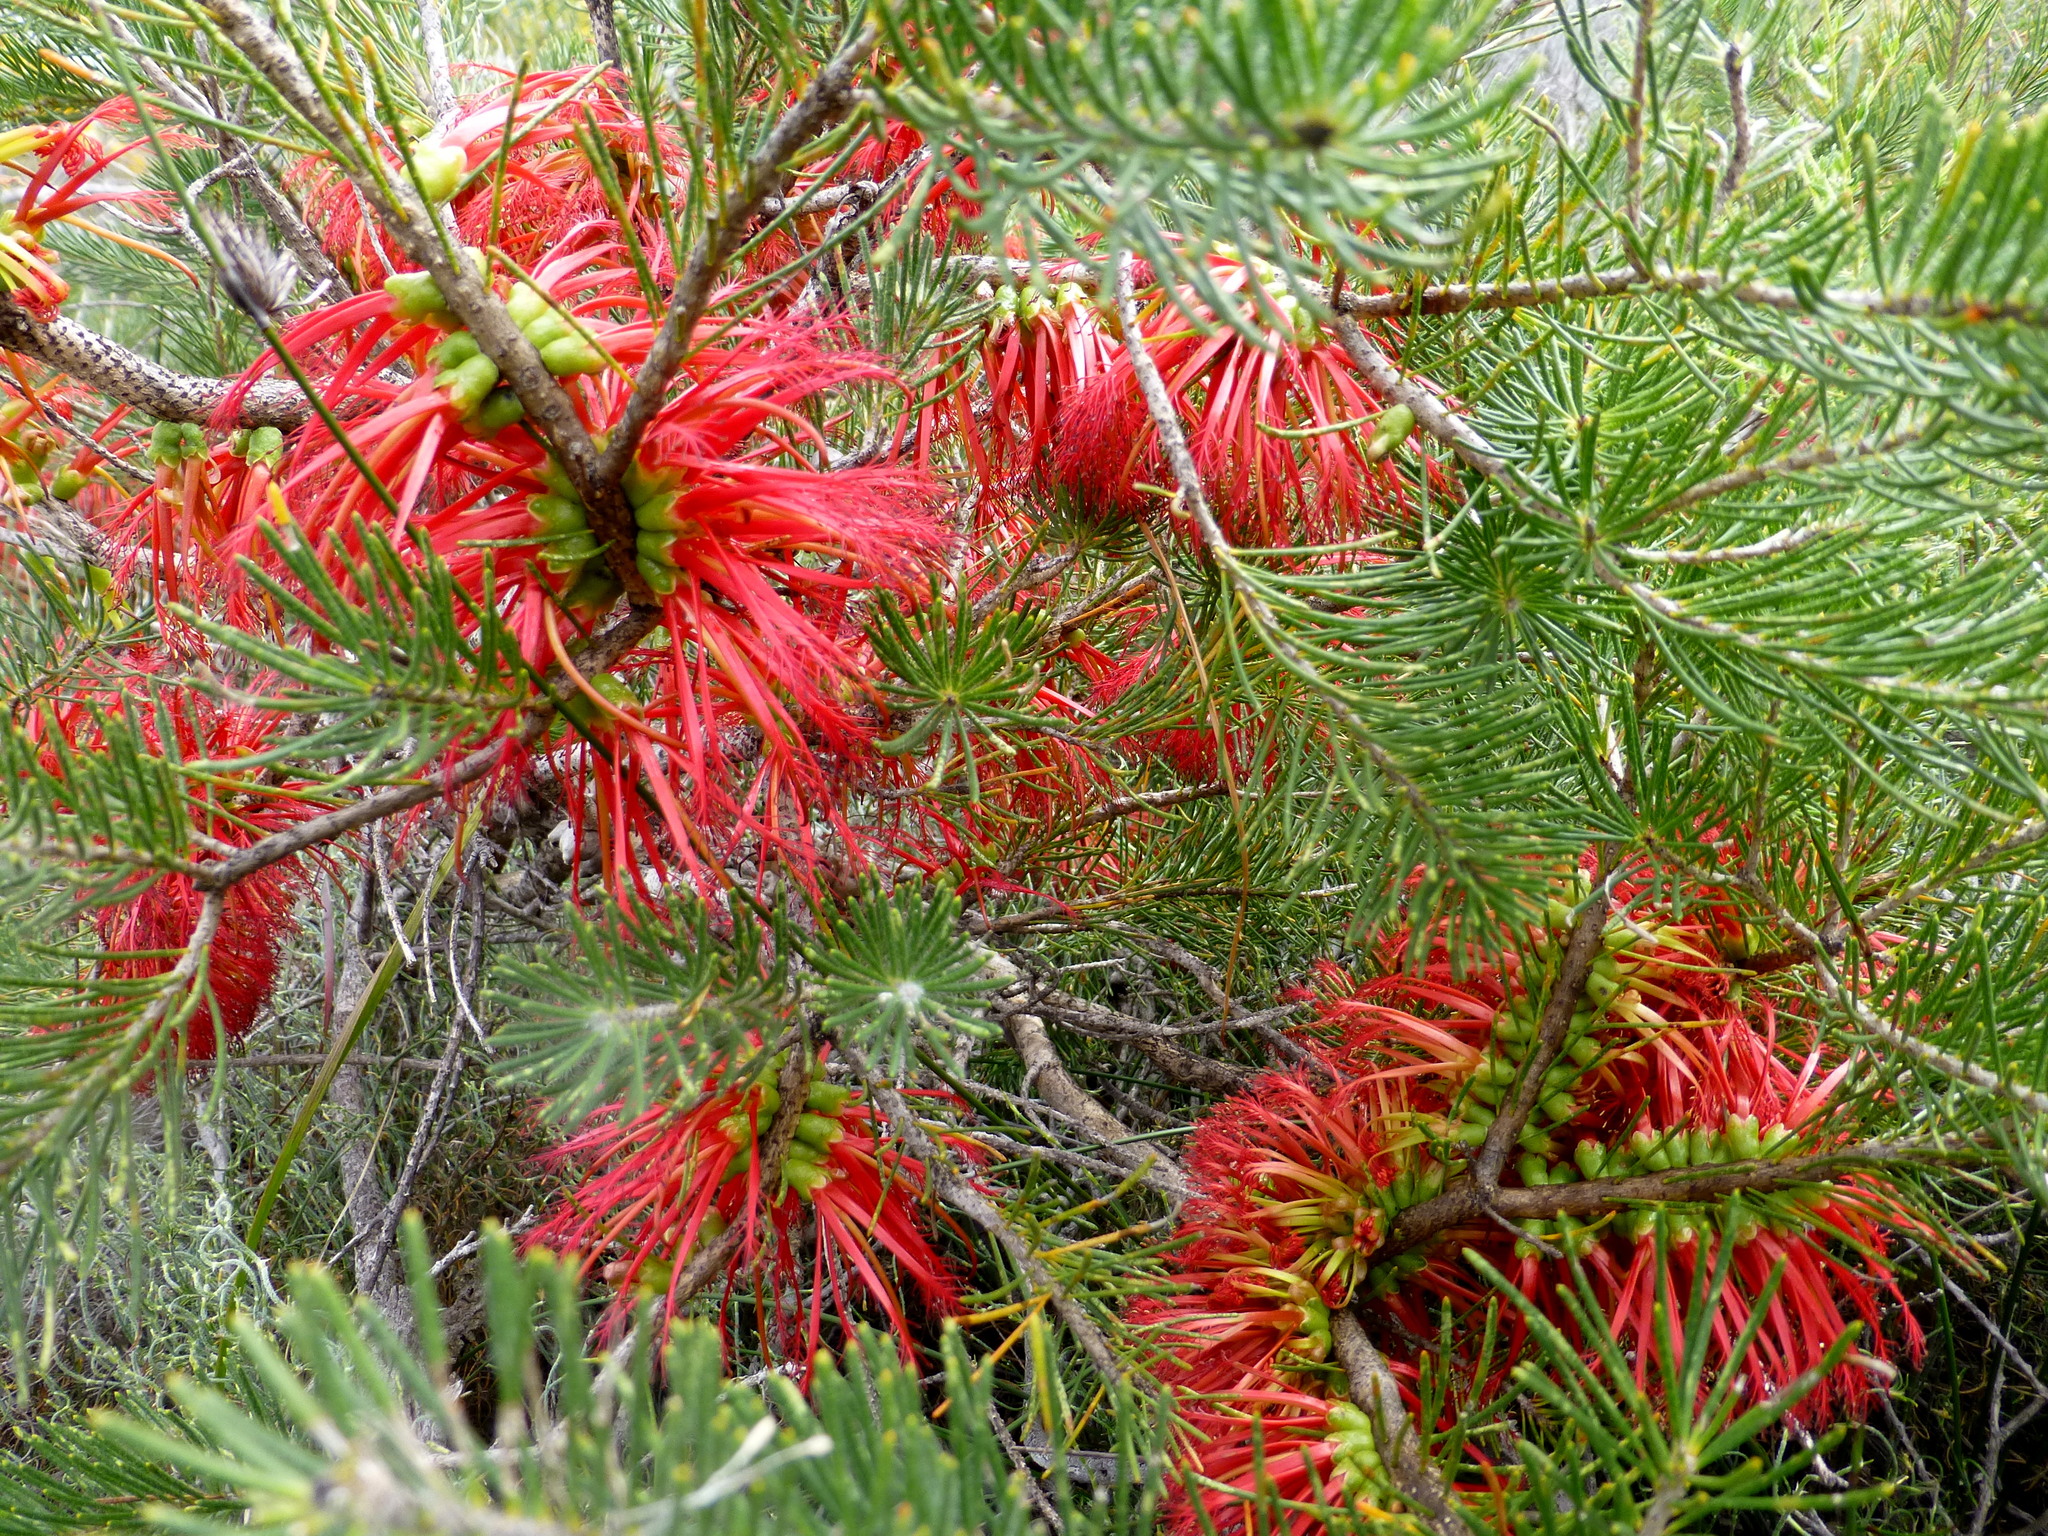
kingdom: Plantae
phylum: Tracheophyta
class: Magnoliopsida
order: Myrtales
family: Myrtaceae
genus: Melaleuca
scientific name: Melaleuca quadrifida
